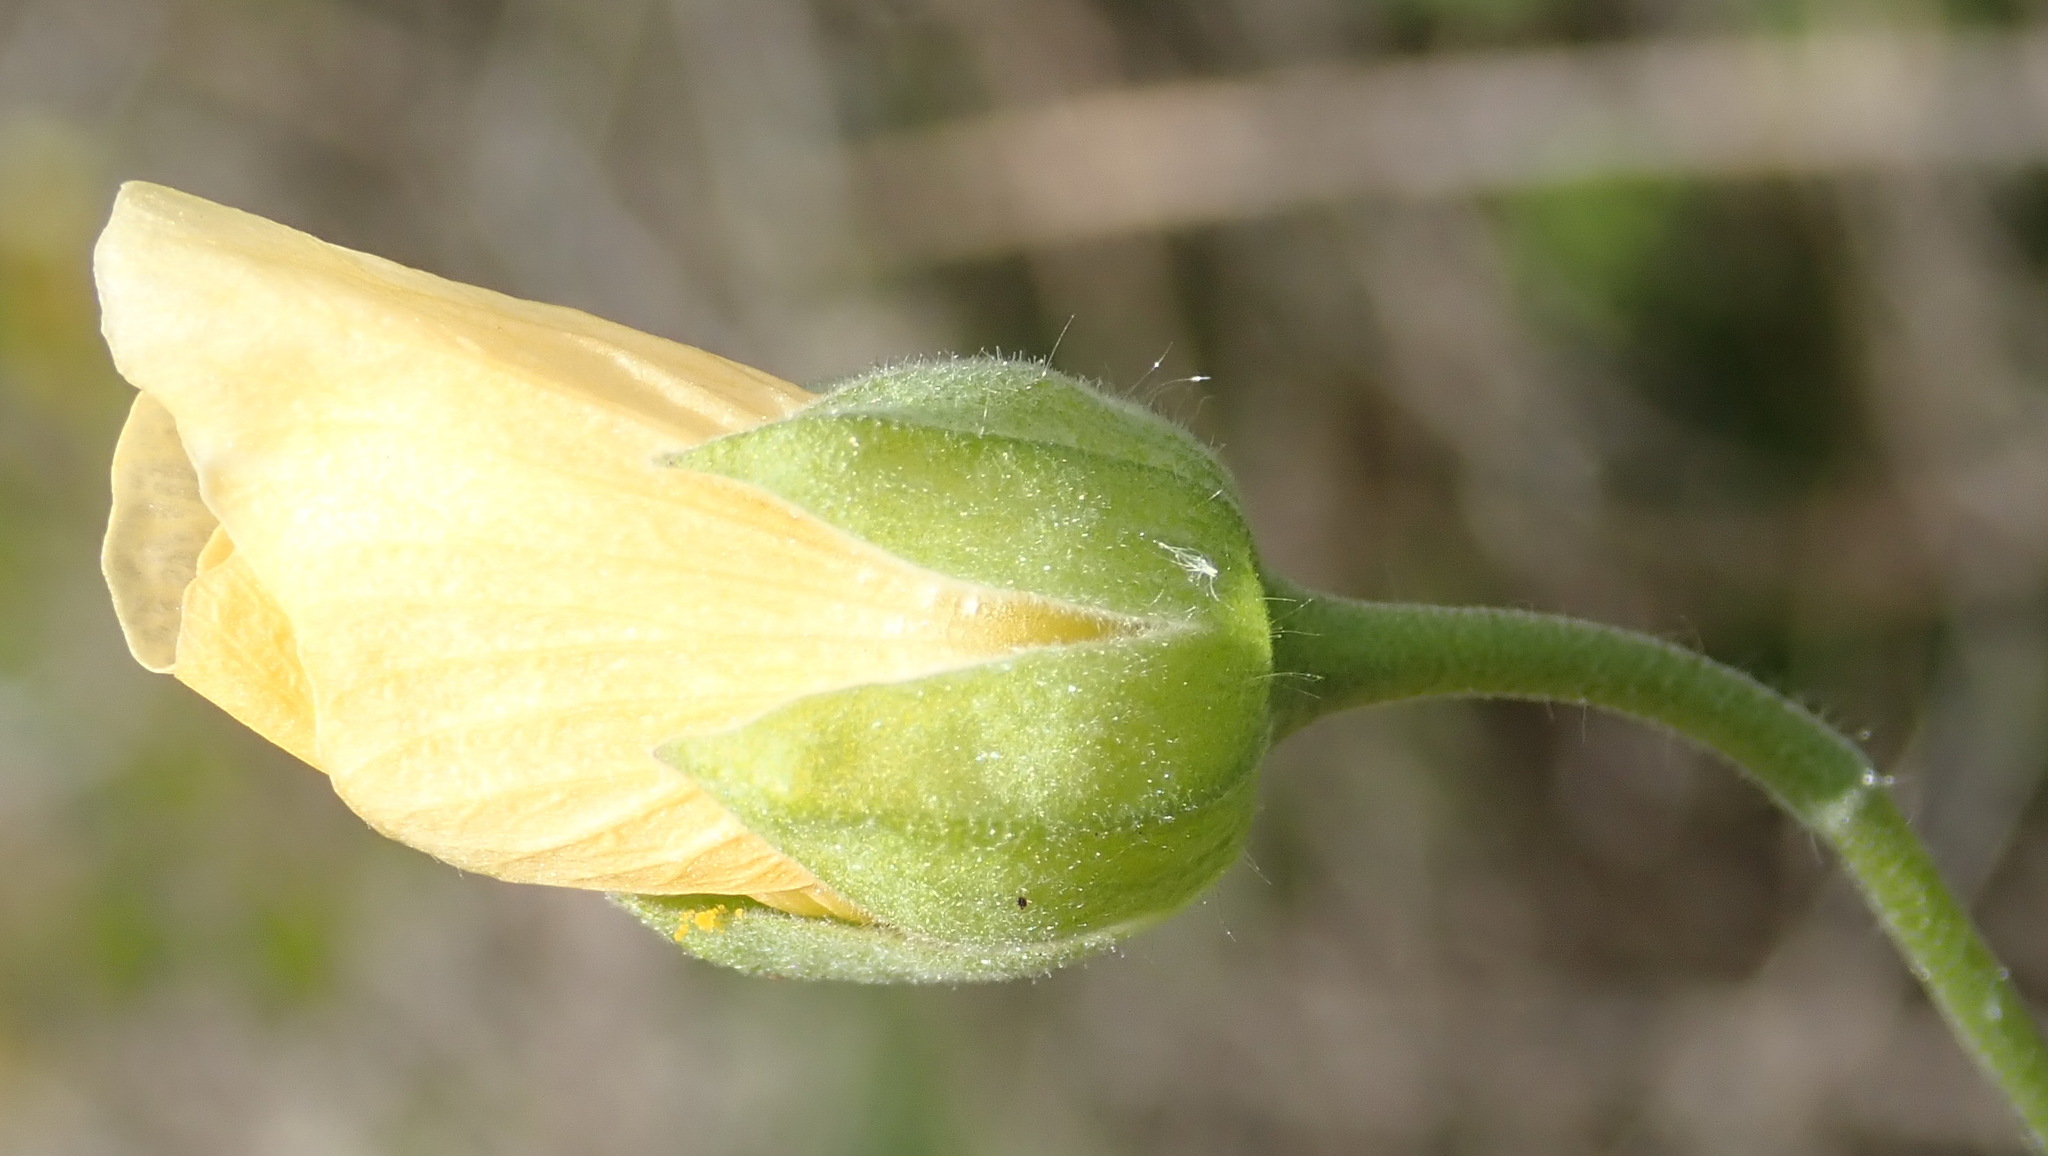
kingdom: Plantae
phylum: Tracheophyta
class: Magnoliopsida
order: Malvales
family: Malvaceae
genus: Abutilon
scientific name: Abutilon sonneratianum
